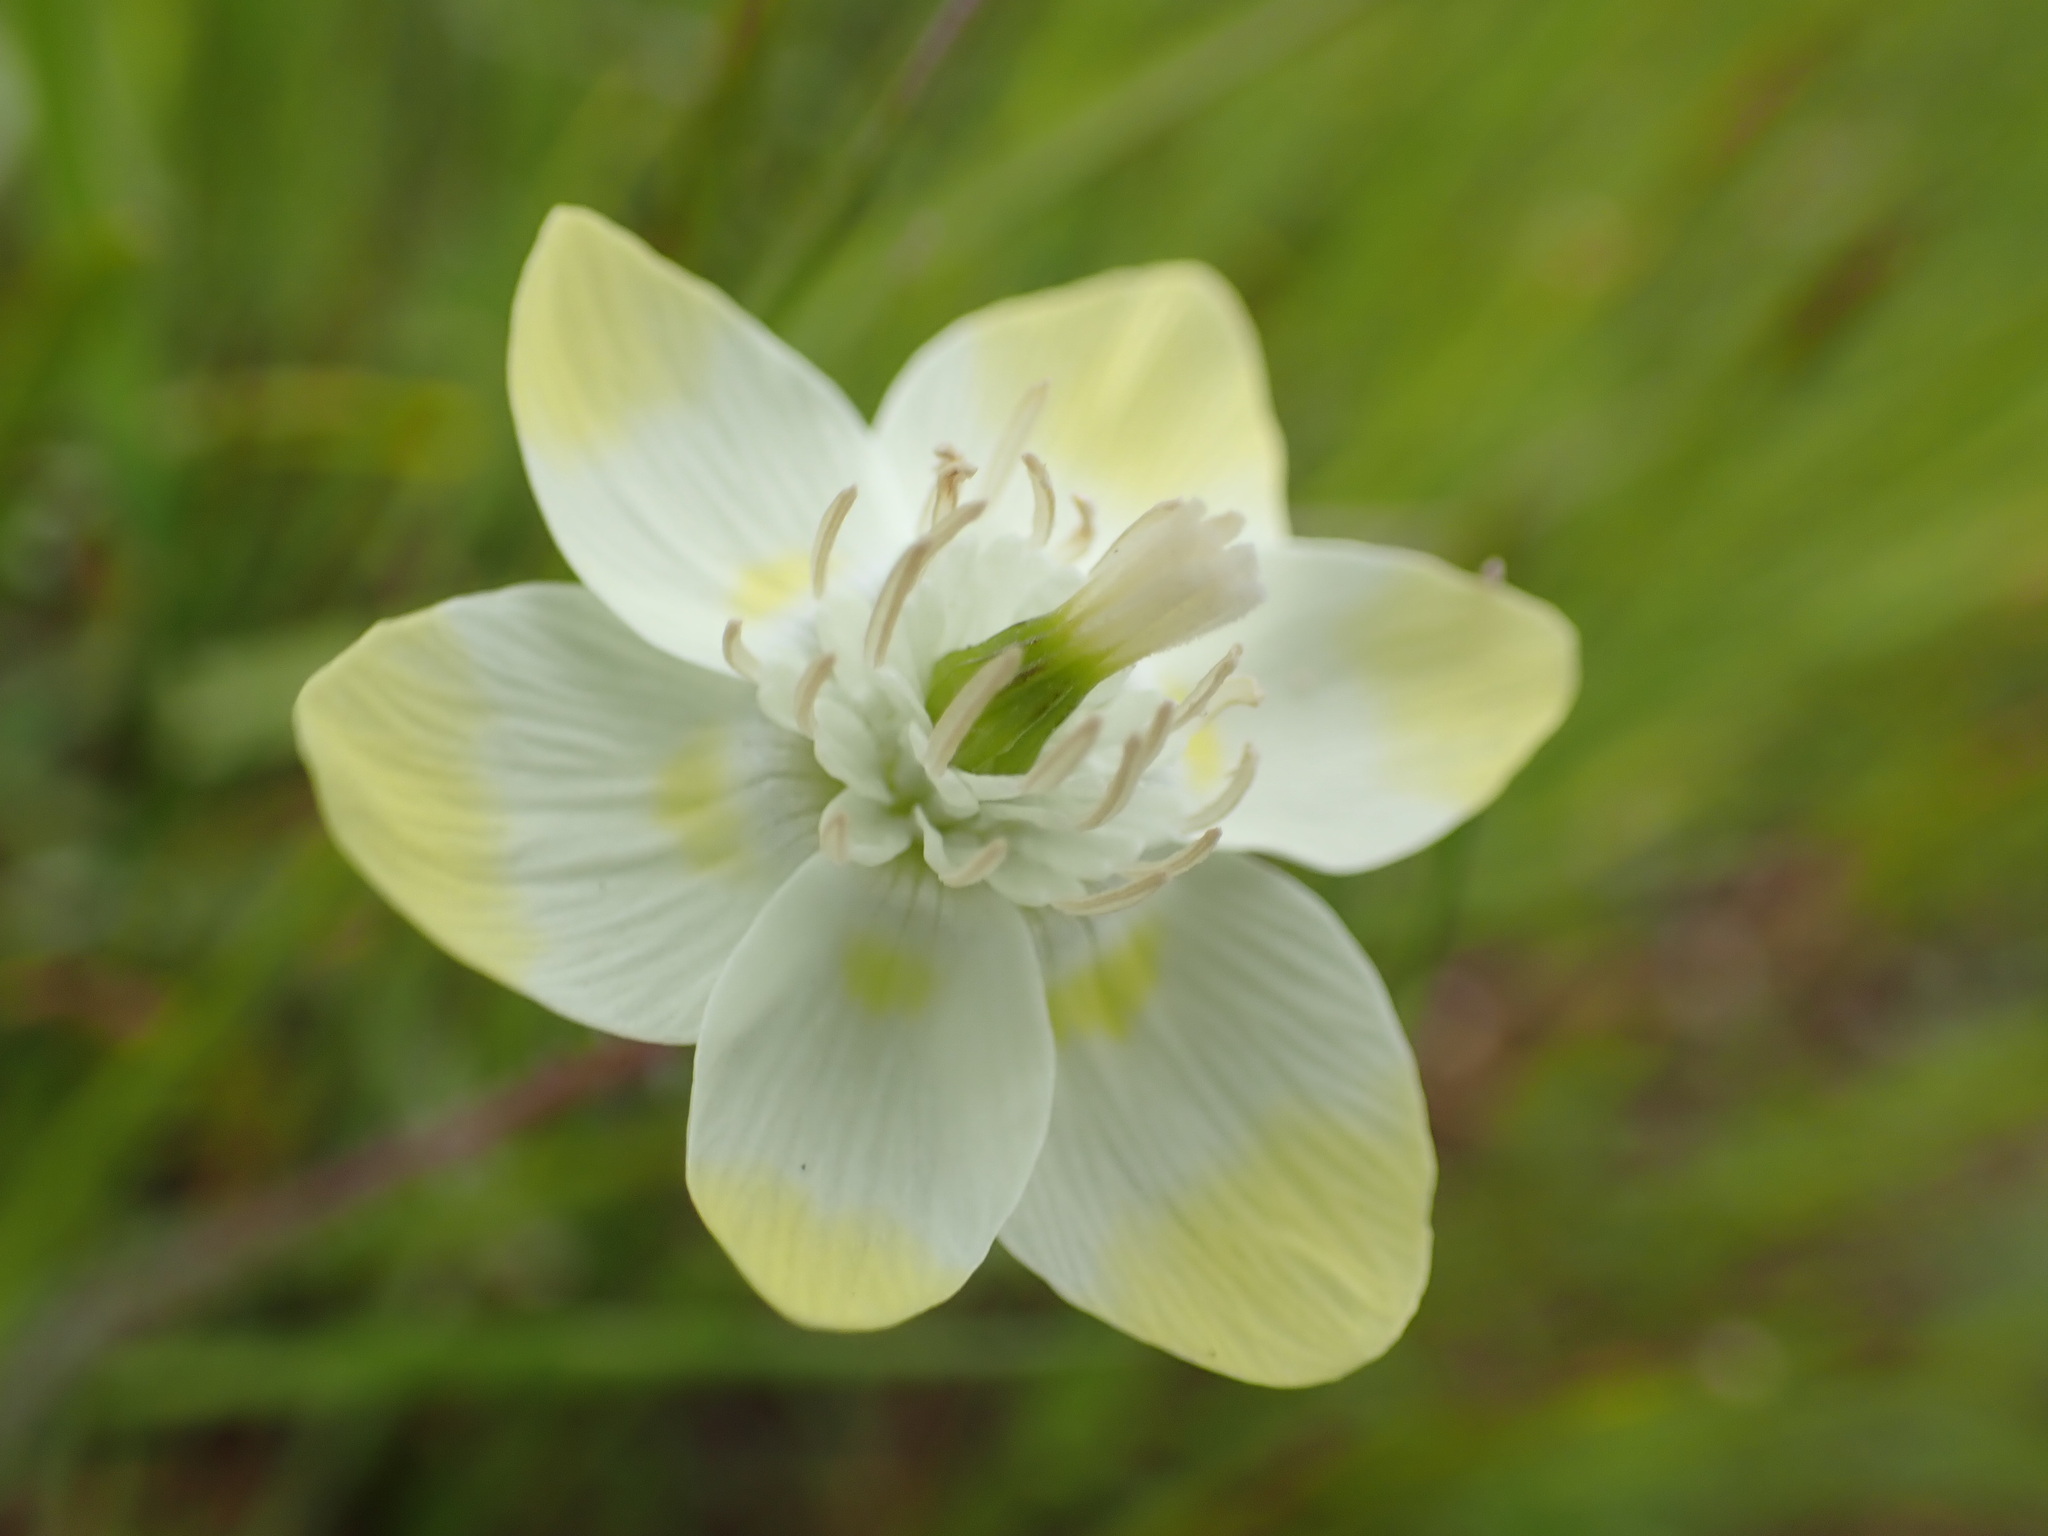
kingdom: Plantae
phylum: Tracheophyta
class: Magnoliopsida
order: Ranunculales
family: Papaveraceae
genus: Platystemon
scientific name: Platystemon californicus
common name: Cream-cups
